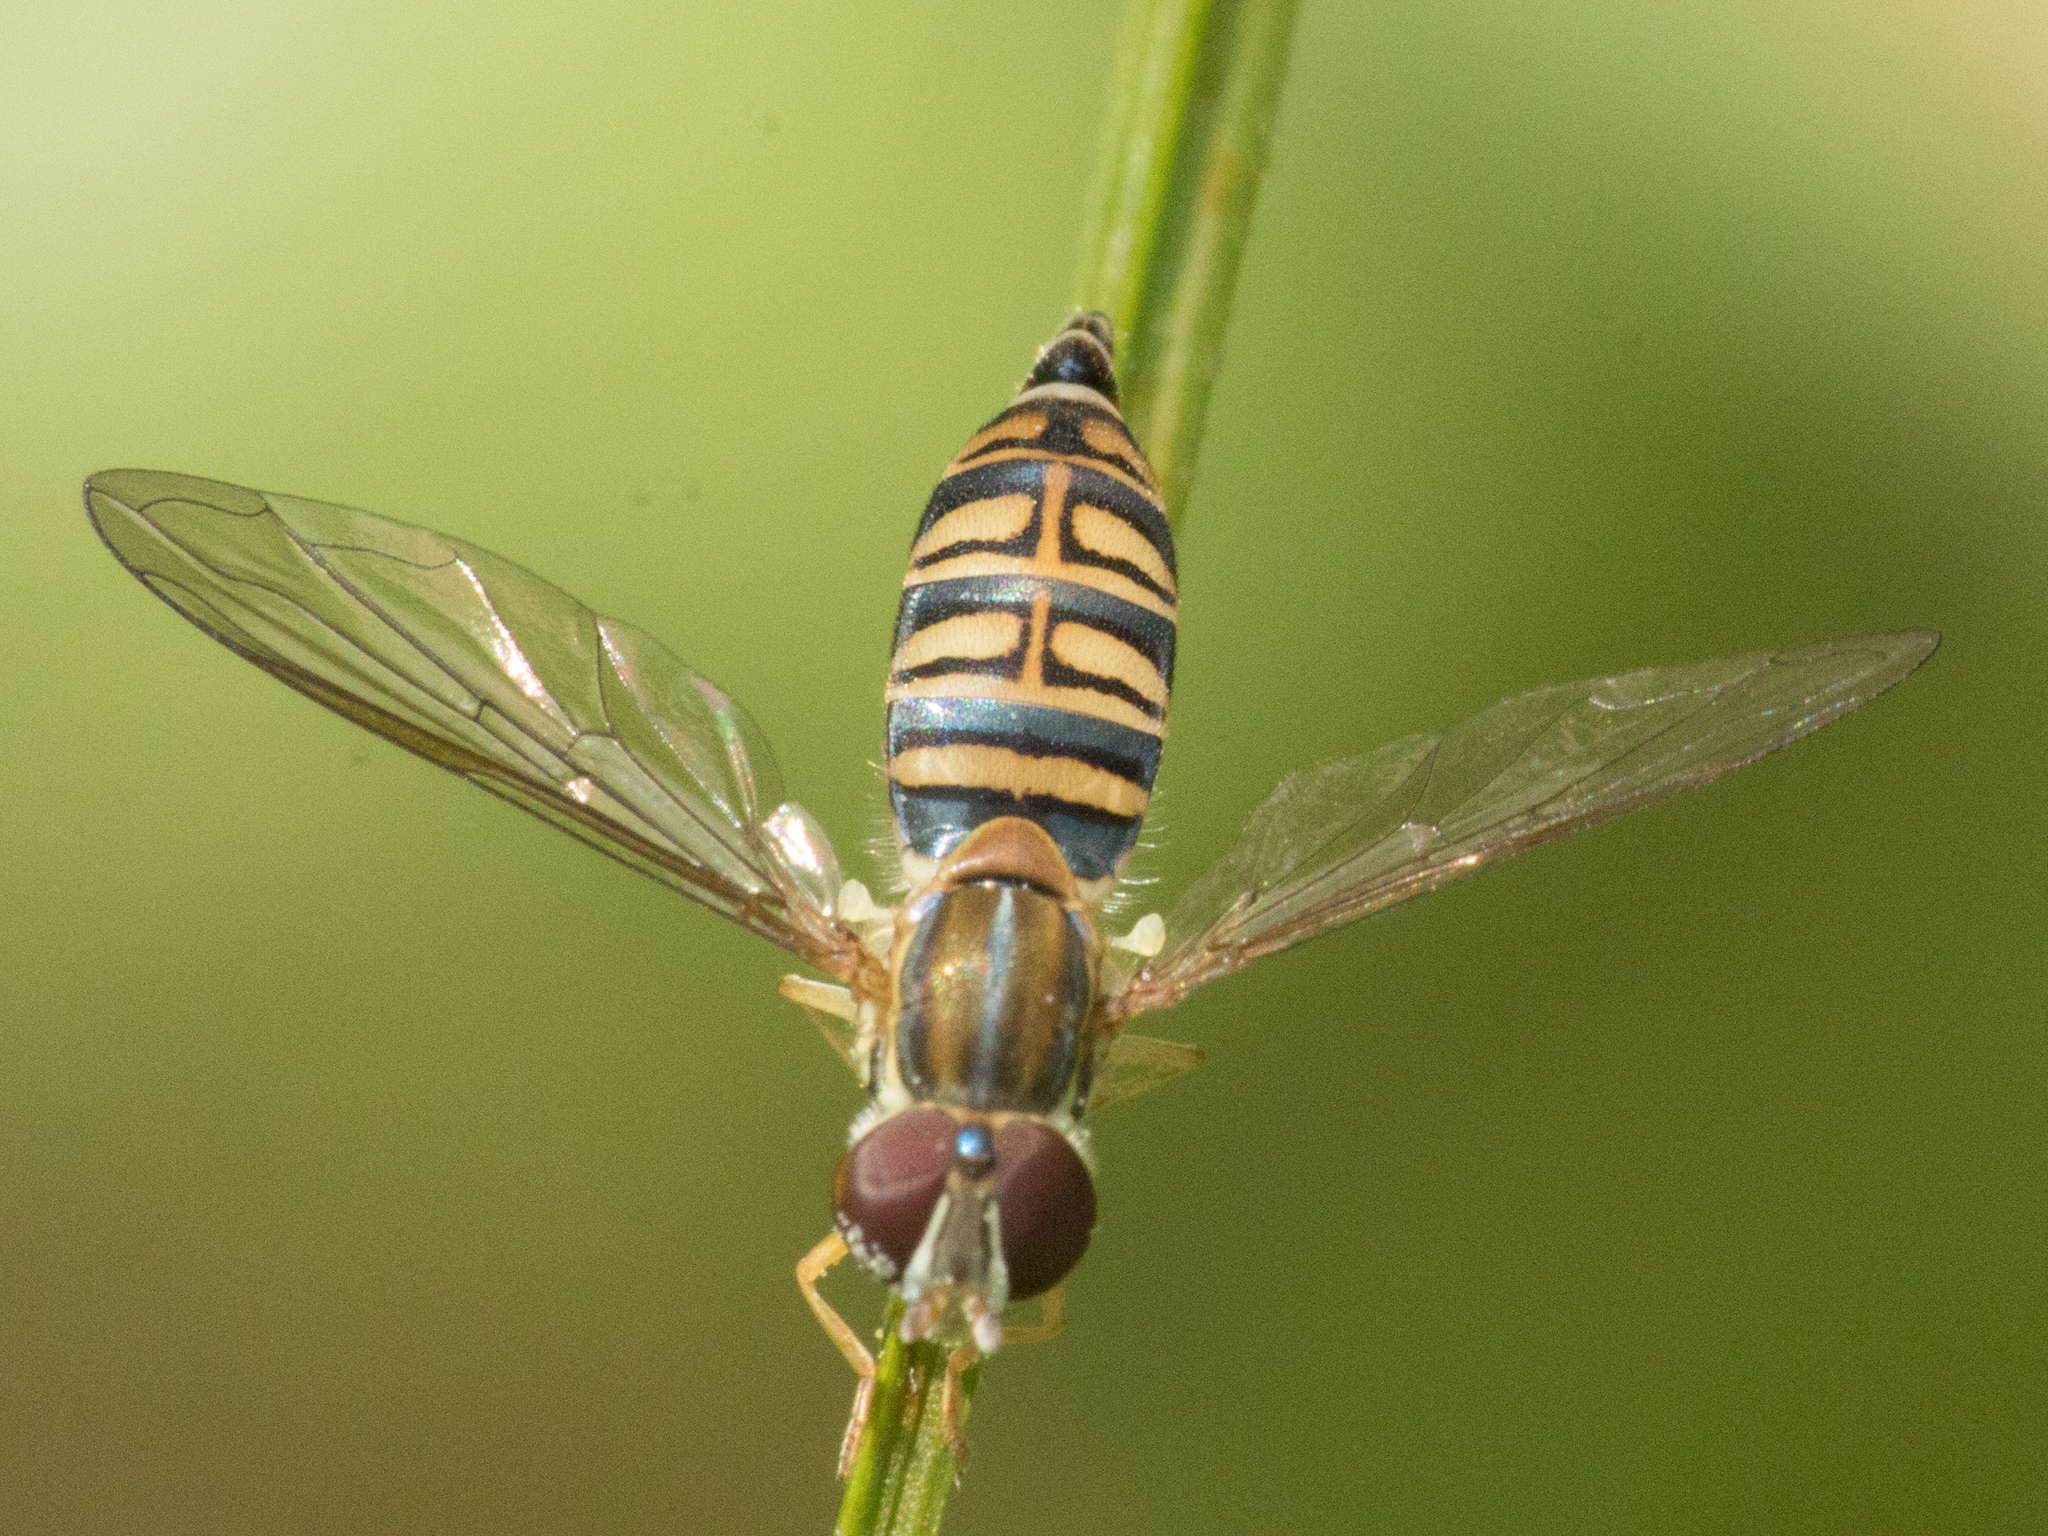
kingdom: Animalia
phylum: Arthropoda
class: Insecta
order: Diptera
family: Syrphidae
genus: Toxomerus
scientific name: Toxomerus politus
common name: Maize calligrapher
